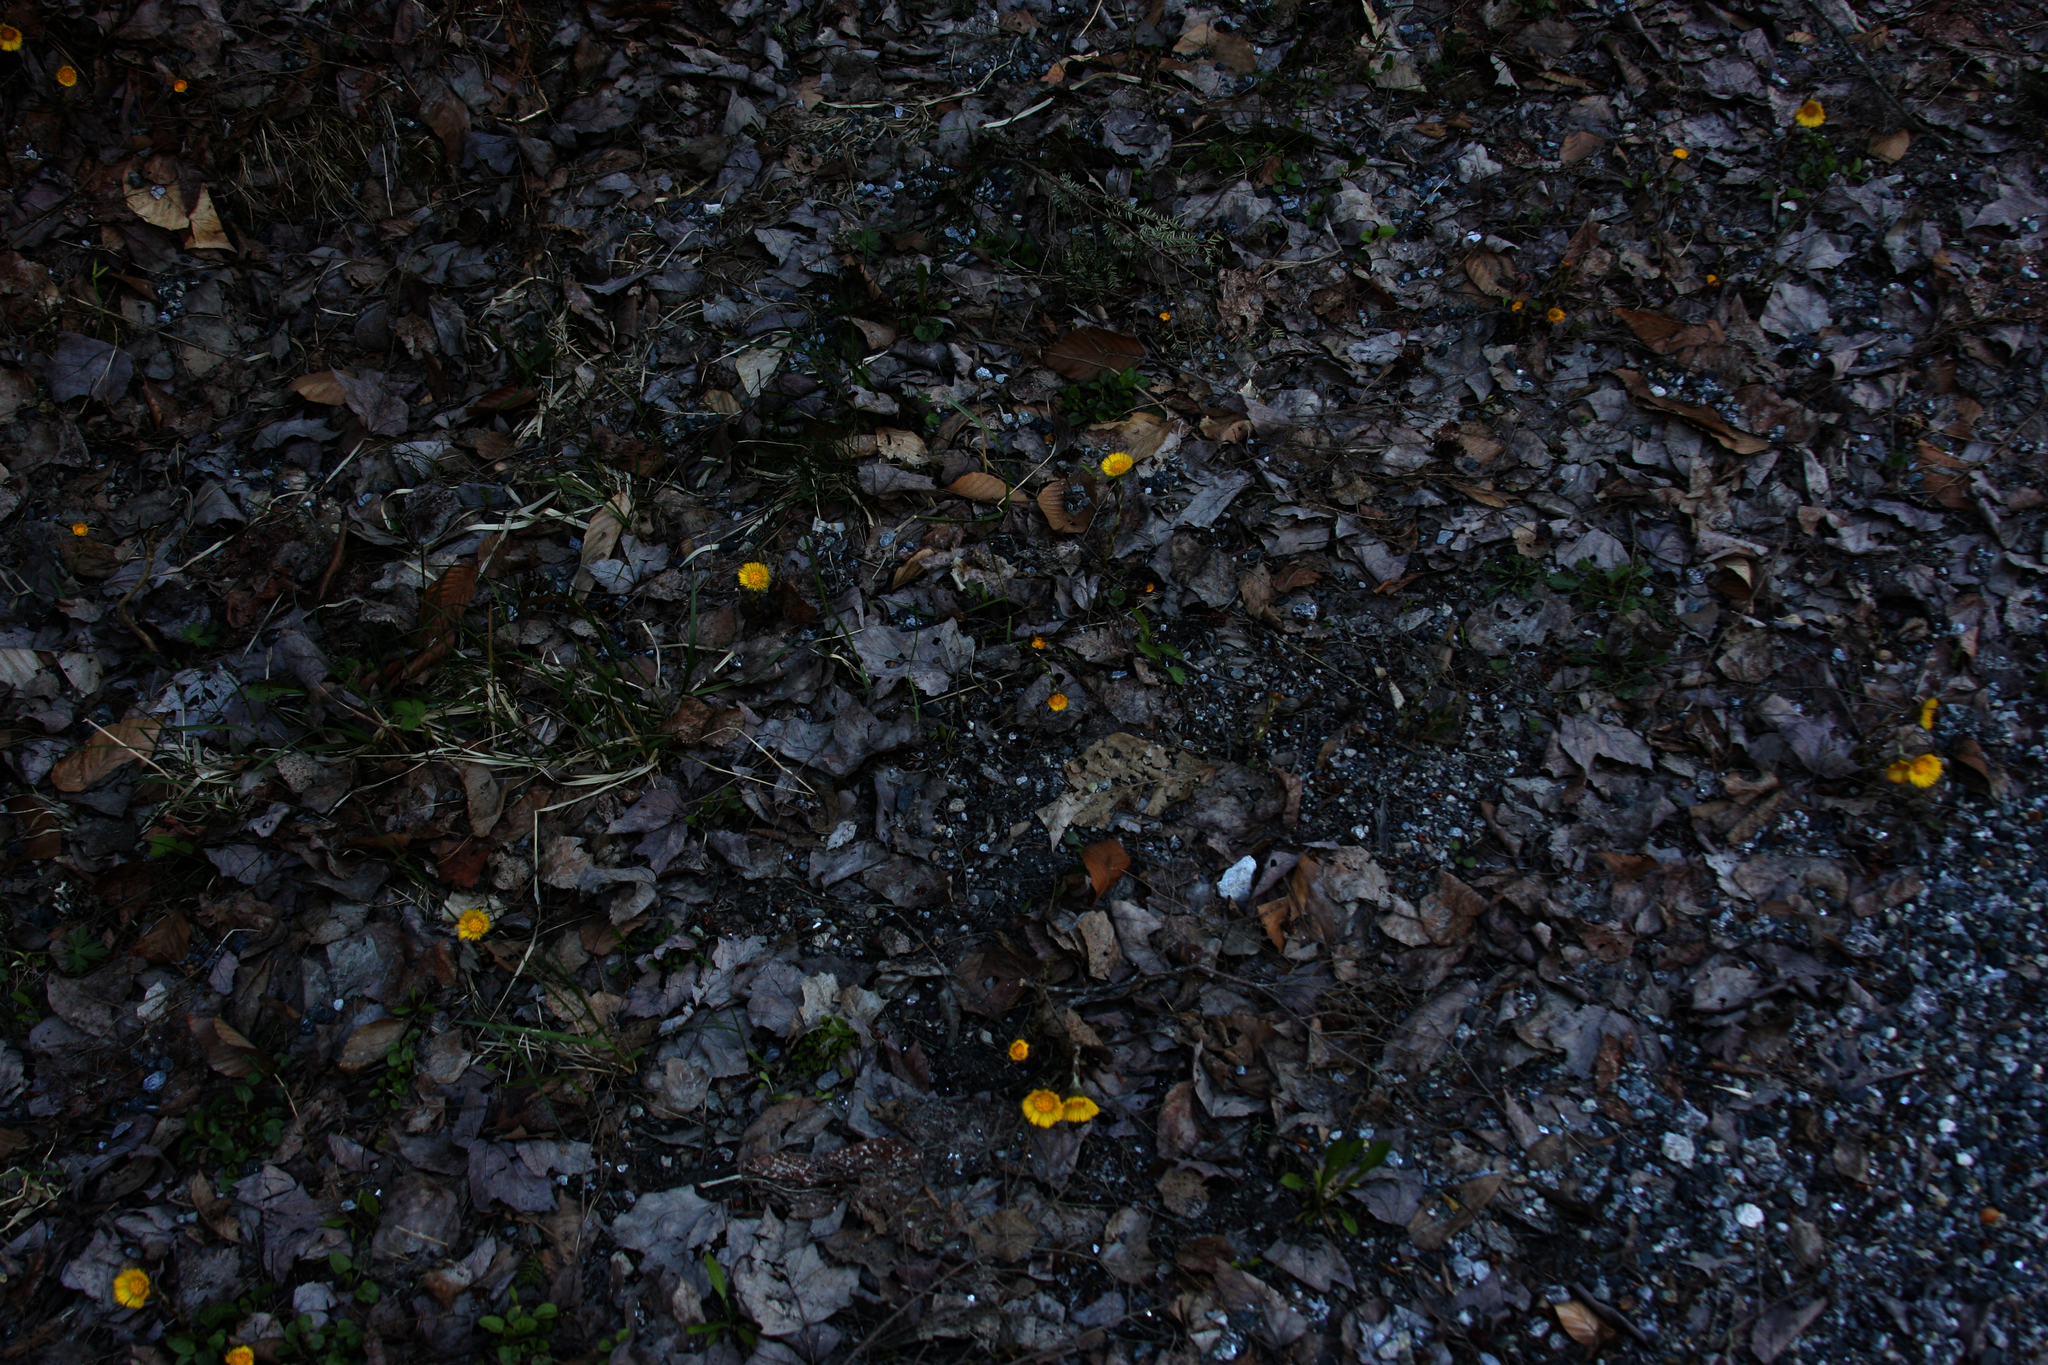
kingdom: Plantae
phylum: Tracheophyta
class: Magnoliopsida
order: Asterales
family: Asteraceae
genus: Tussilago
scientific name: Tussilago farfara
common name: Coltsfoot
